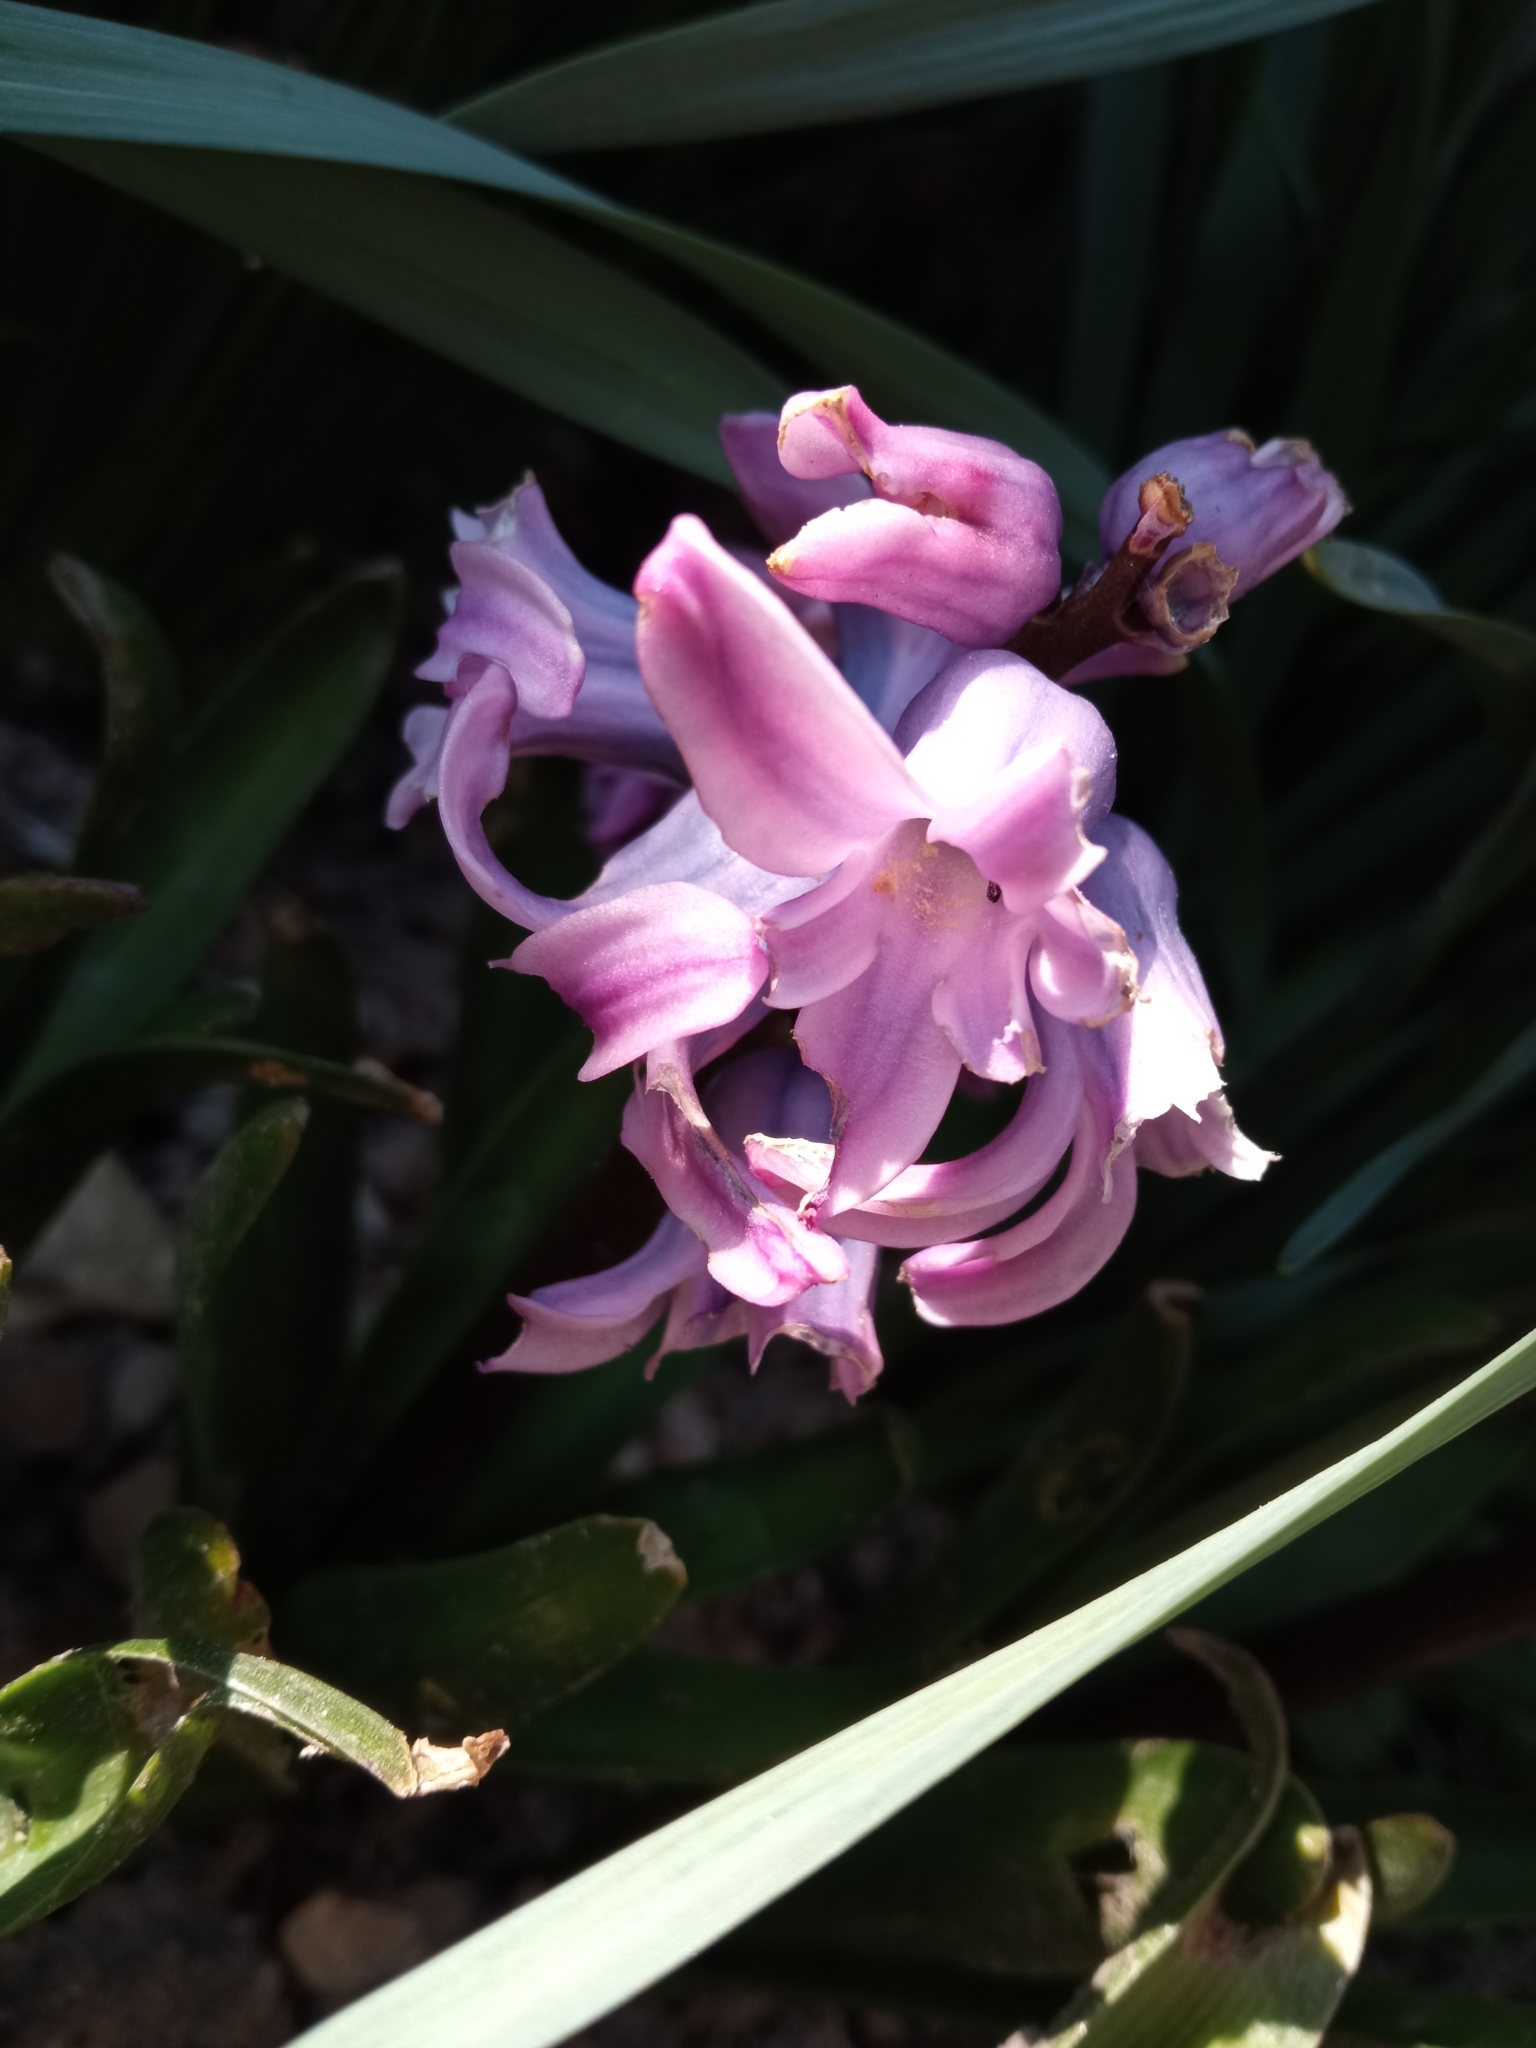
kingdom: Plantae
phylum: Tracheophyta
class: Liliopsida
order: Asparagales
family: Asparagaceae
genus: Hyacinthus
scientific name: Hyacinthus orientalis
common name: Hyacinth
